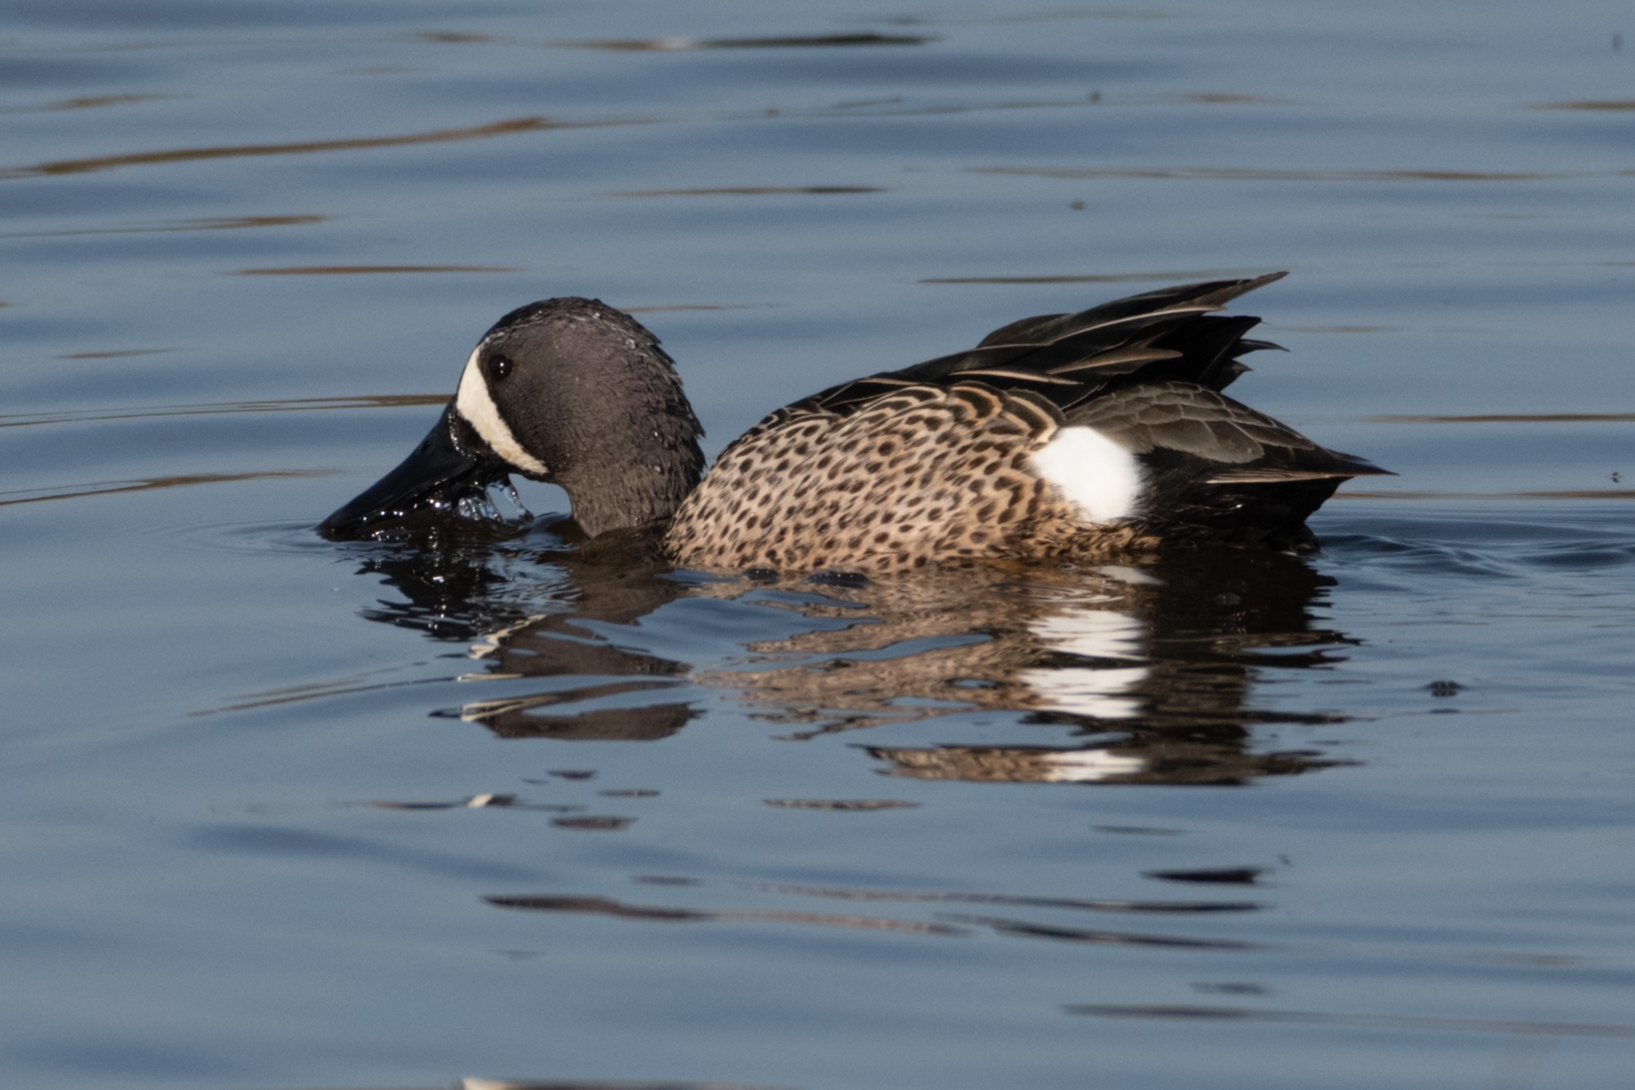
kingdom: Animalia
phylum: Chordata
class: Aves
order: Anseriformes
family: Anatidae
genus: Spatula
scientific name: Spatula discors
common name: Blue-winged teal
